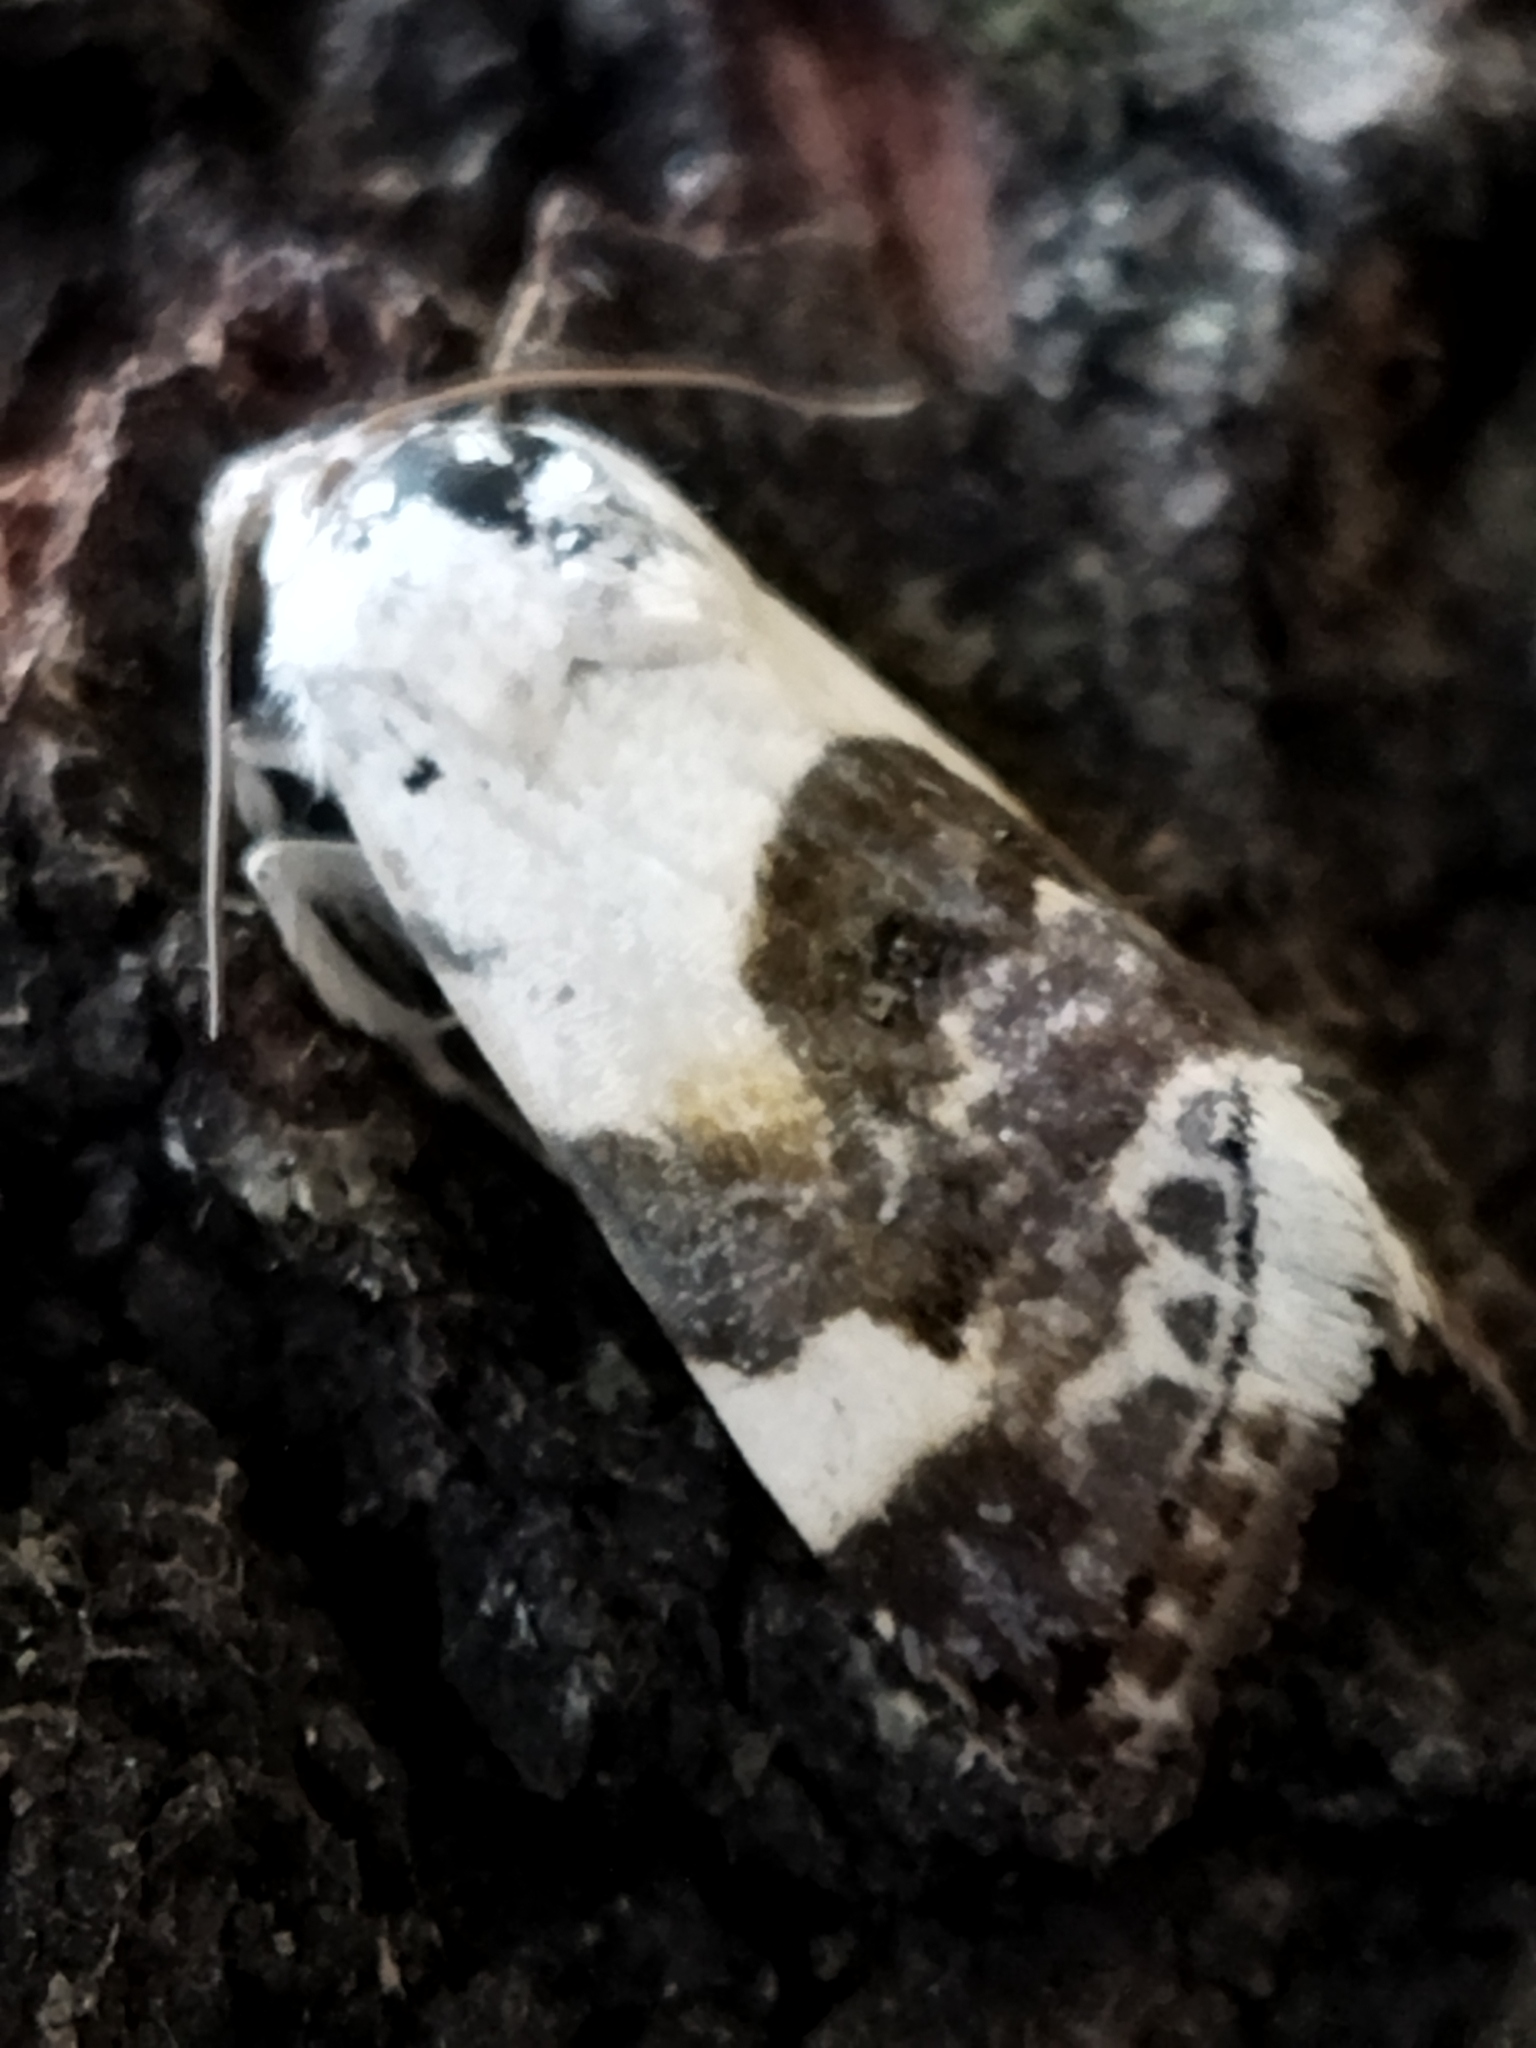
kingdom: Animalia
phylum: Arthropoda
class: Insecta
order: Lepidoptera
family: Noctuidae
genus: Acontia
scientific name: Acontia lucida
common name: Pale shoulder
